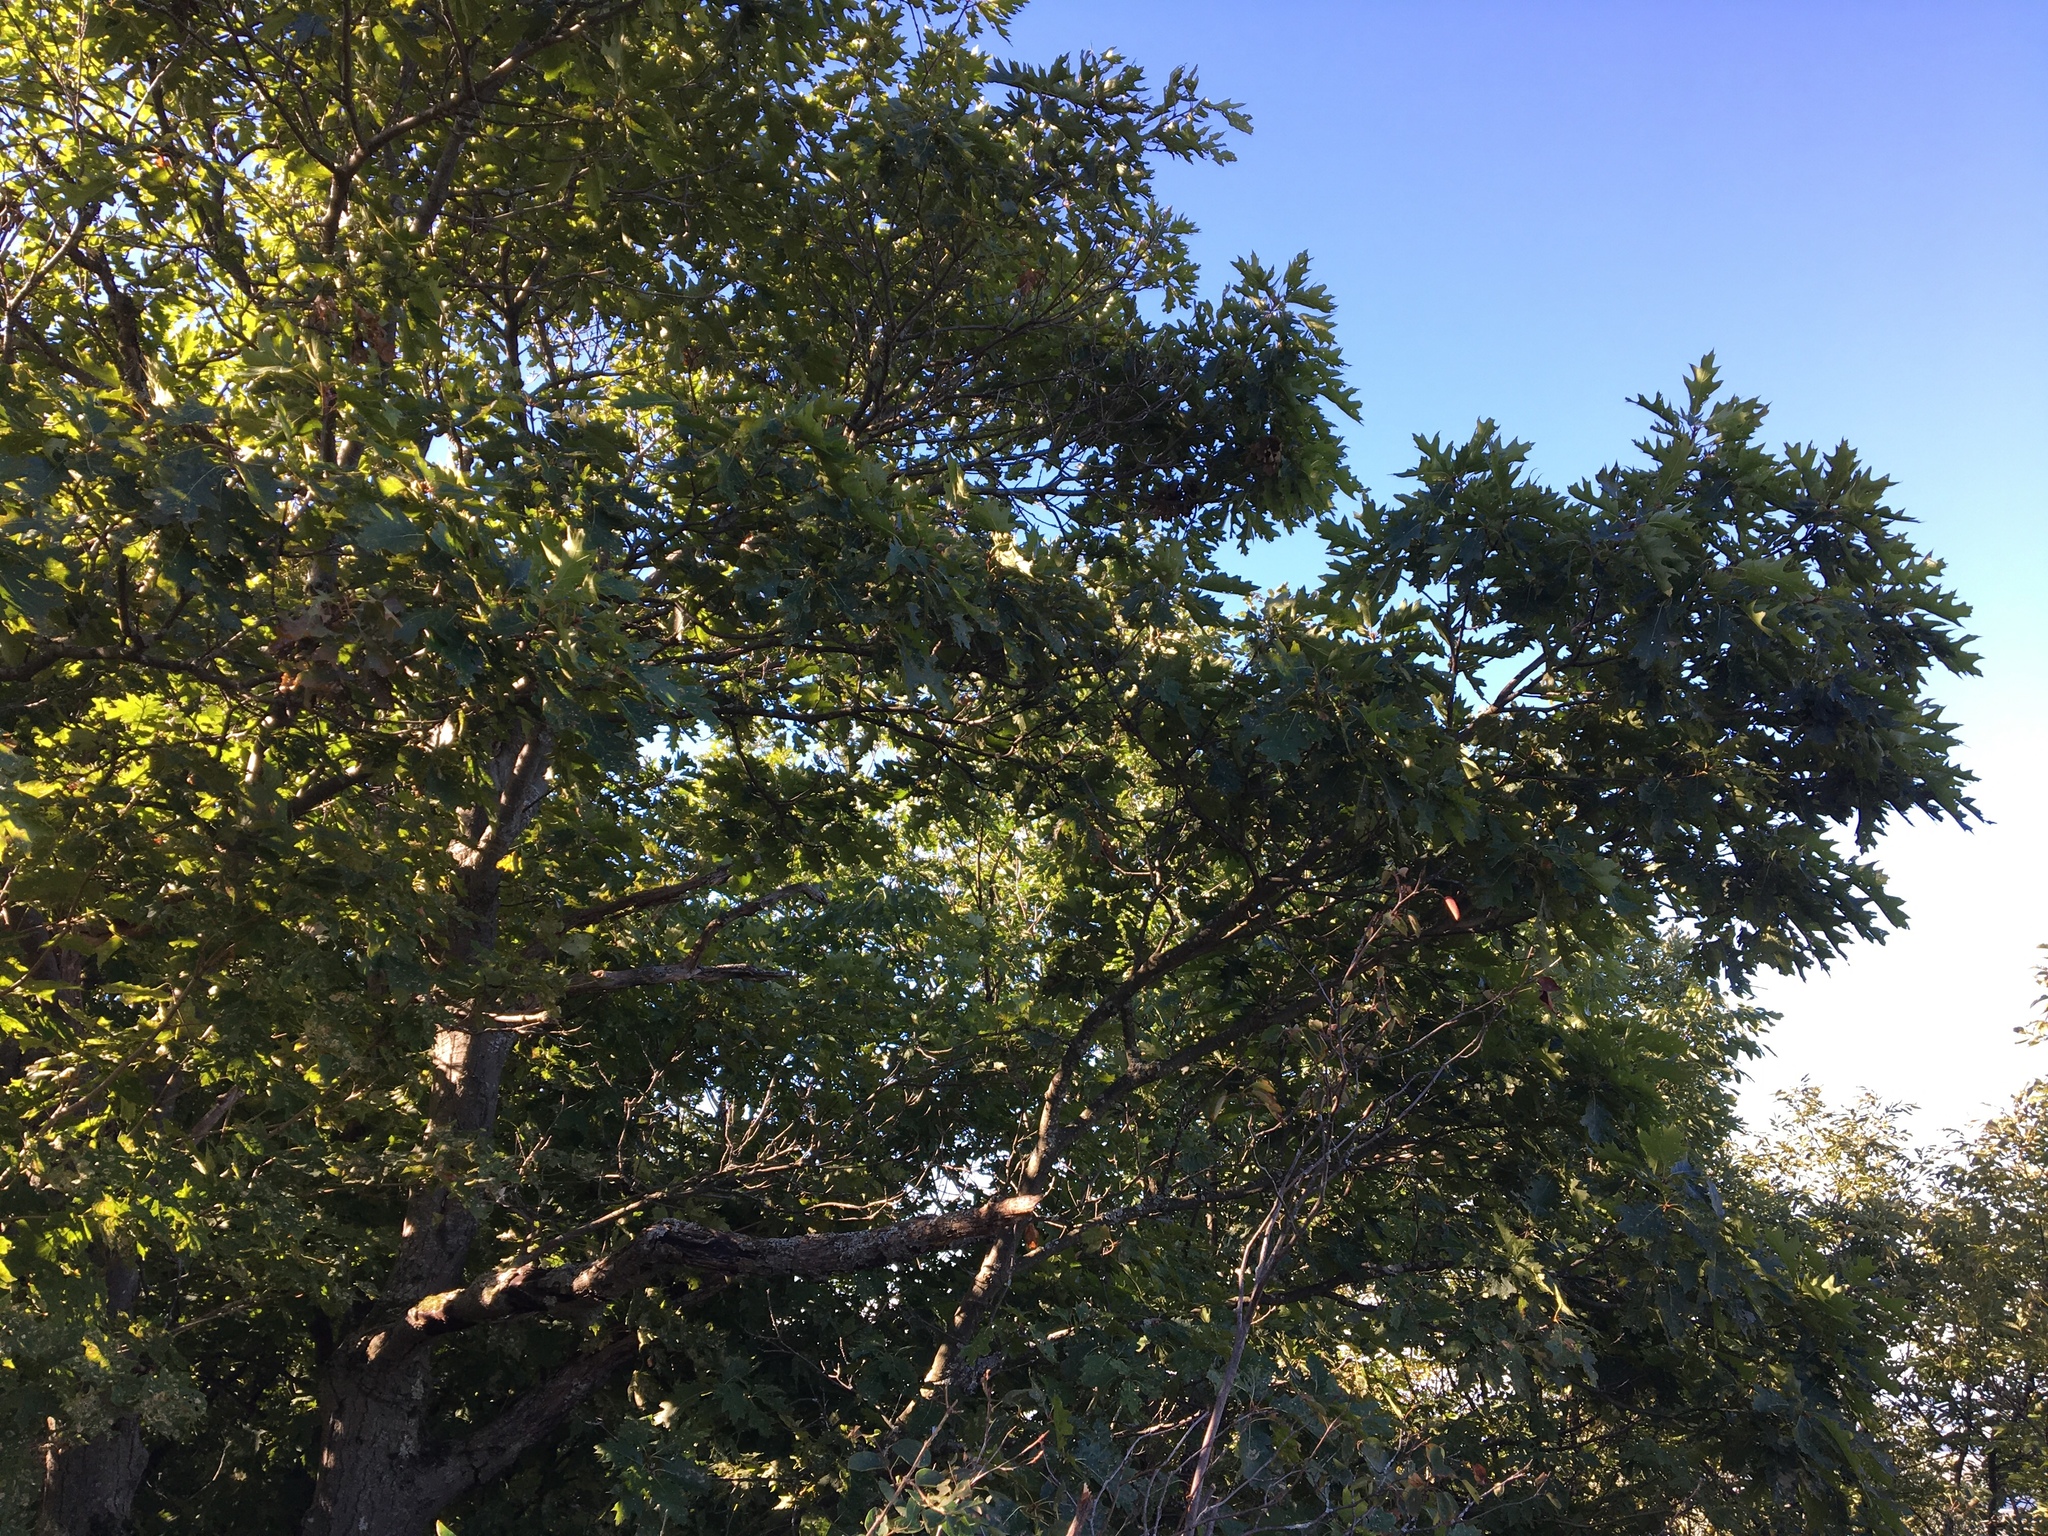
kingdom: Plantae
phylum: Tracheophyta
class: Magnoliopsida
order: Fagales
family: Fagaceae
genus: Quercus
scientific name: Quercus rubra
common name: Red oak
